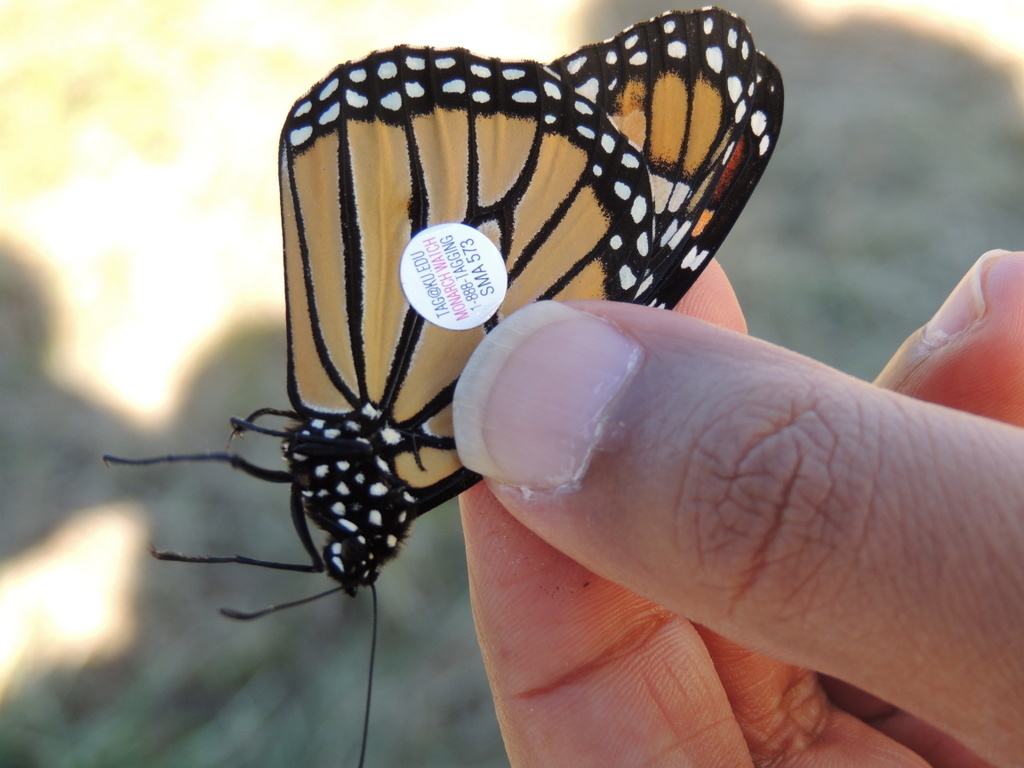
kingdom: Animalia
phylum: Arthropoda
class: Insecta
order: Lepidoptera
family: Nymphalidae
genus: Danaus
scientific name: Danaus plexippus
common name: Monarch
